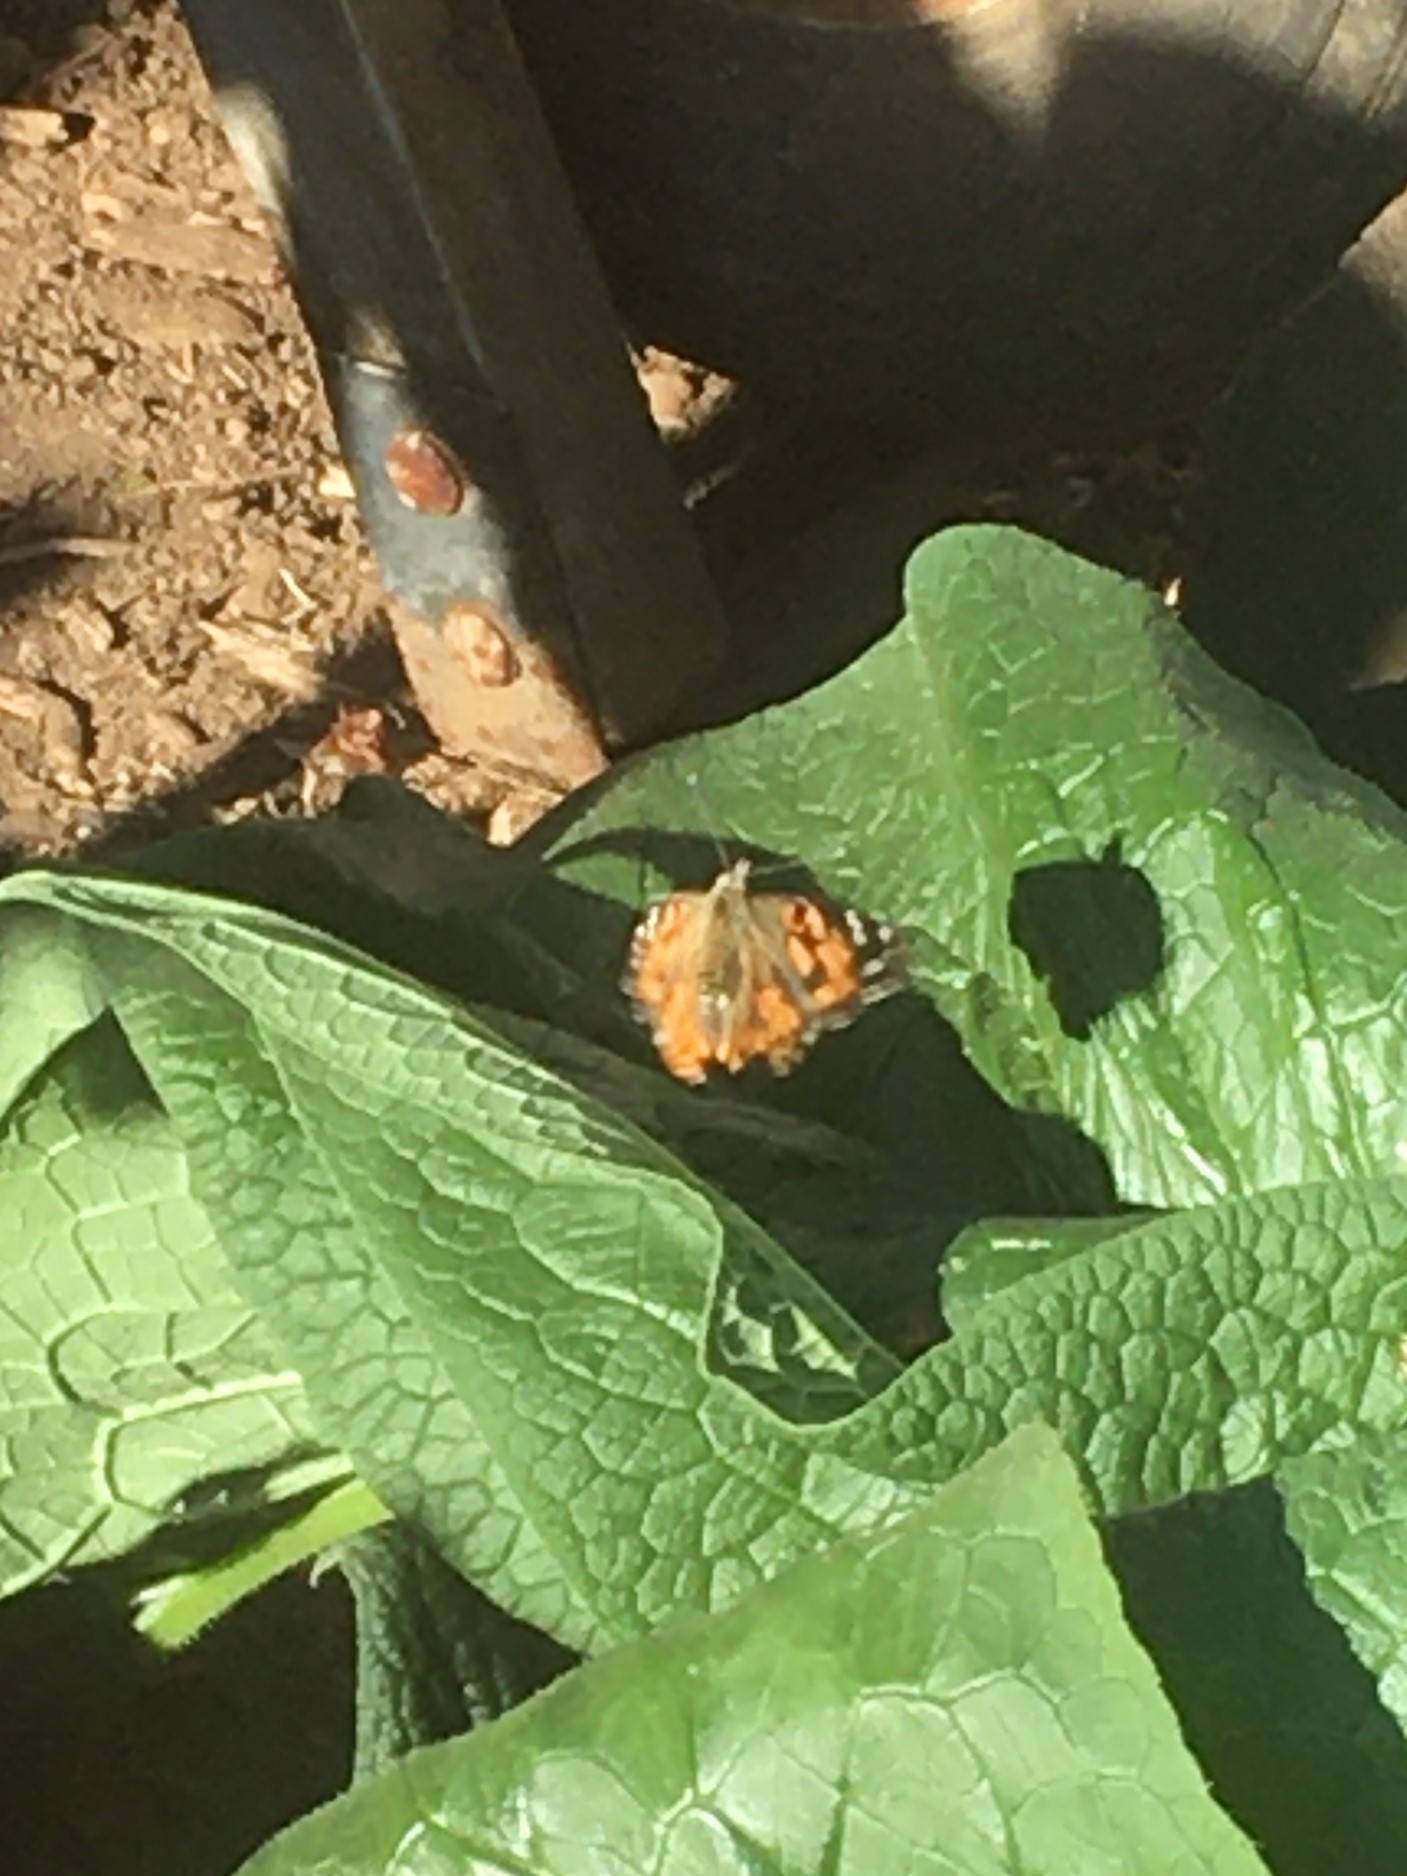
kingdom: Animalia
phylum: Arthropoda
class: Insecta
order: Lepidoptera
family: Nymphalidae
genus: Vanessa
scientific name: Vanessa cardui
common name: Painted lady
